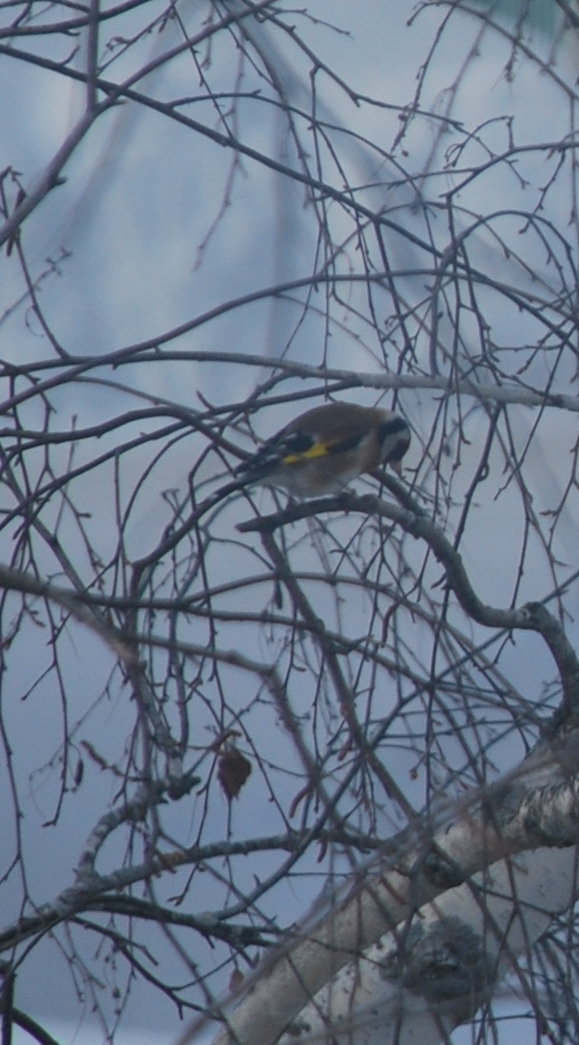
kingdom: Animalia
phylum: Chordata
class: Aves
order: Passeriformes
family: Fringillidae
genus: Carduelis
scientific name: Carduelis carduelis
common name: European goldfinch
